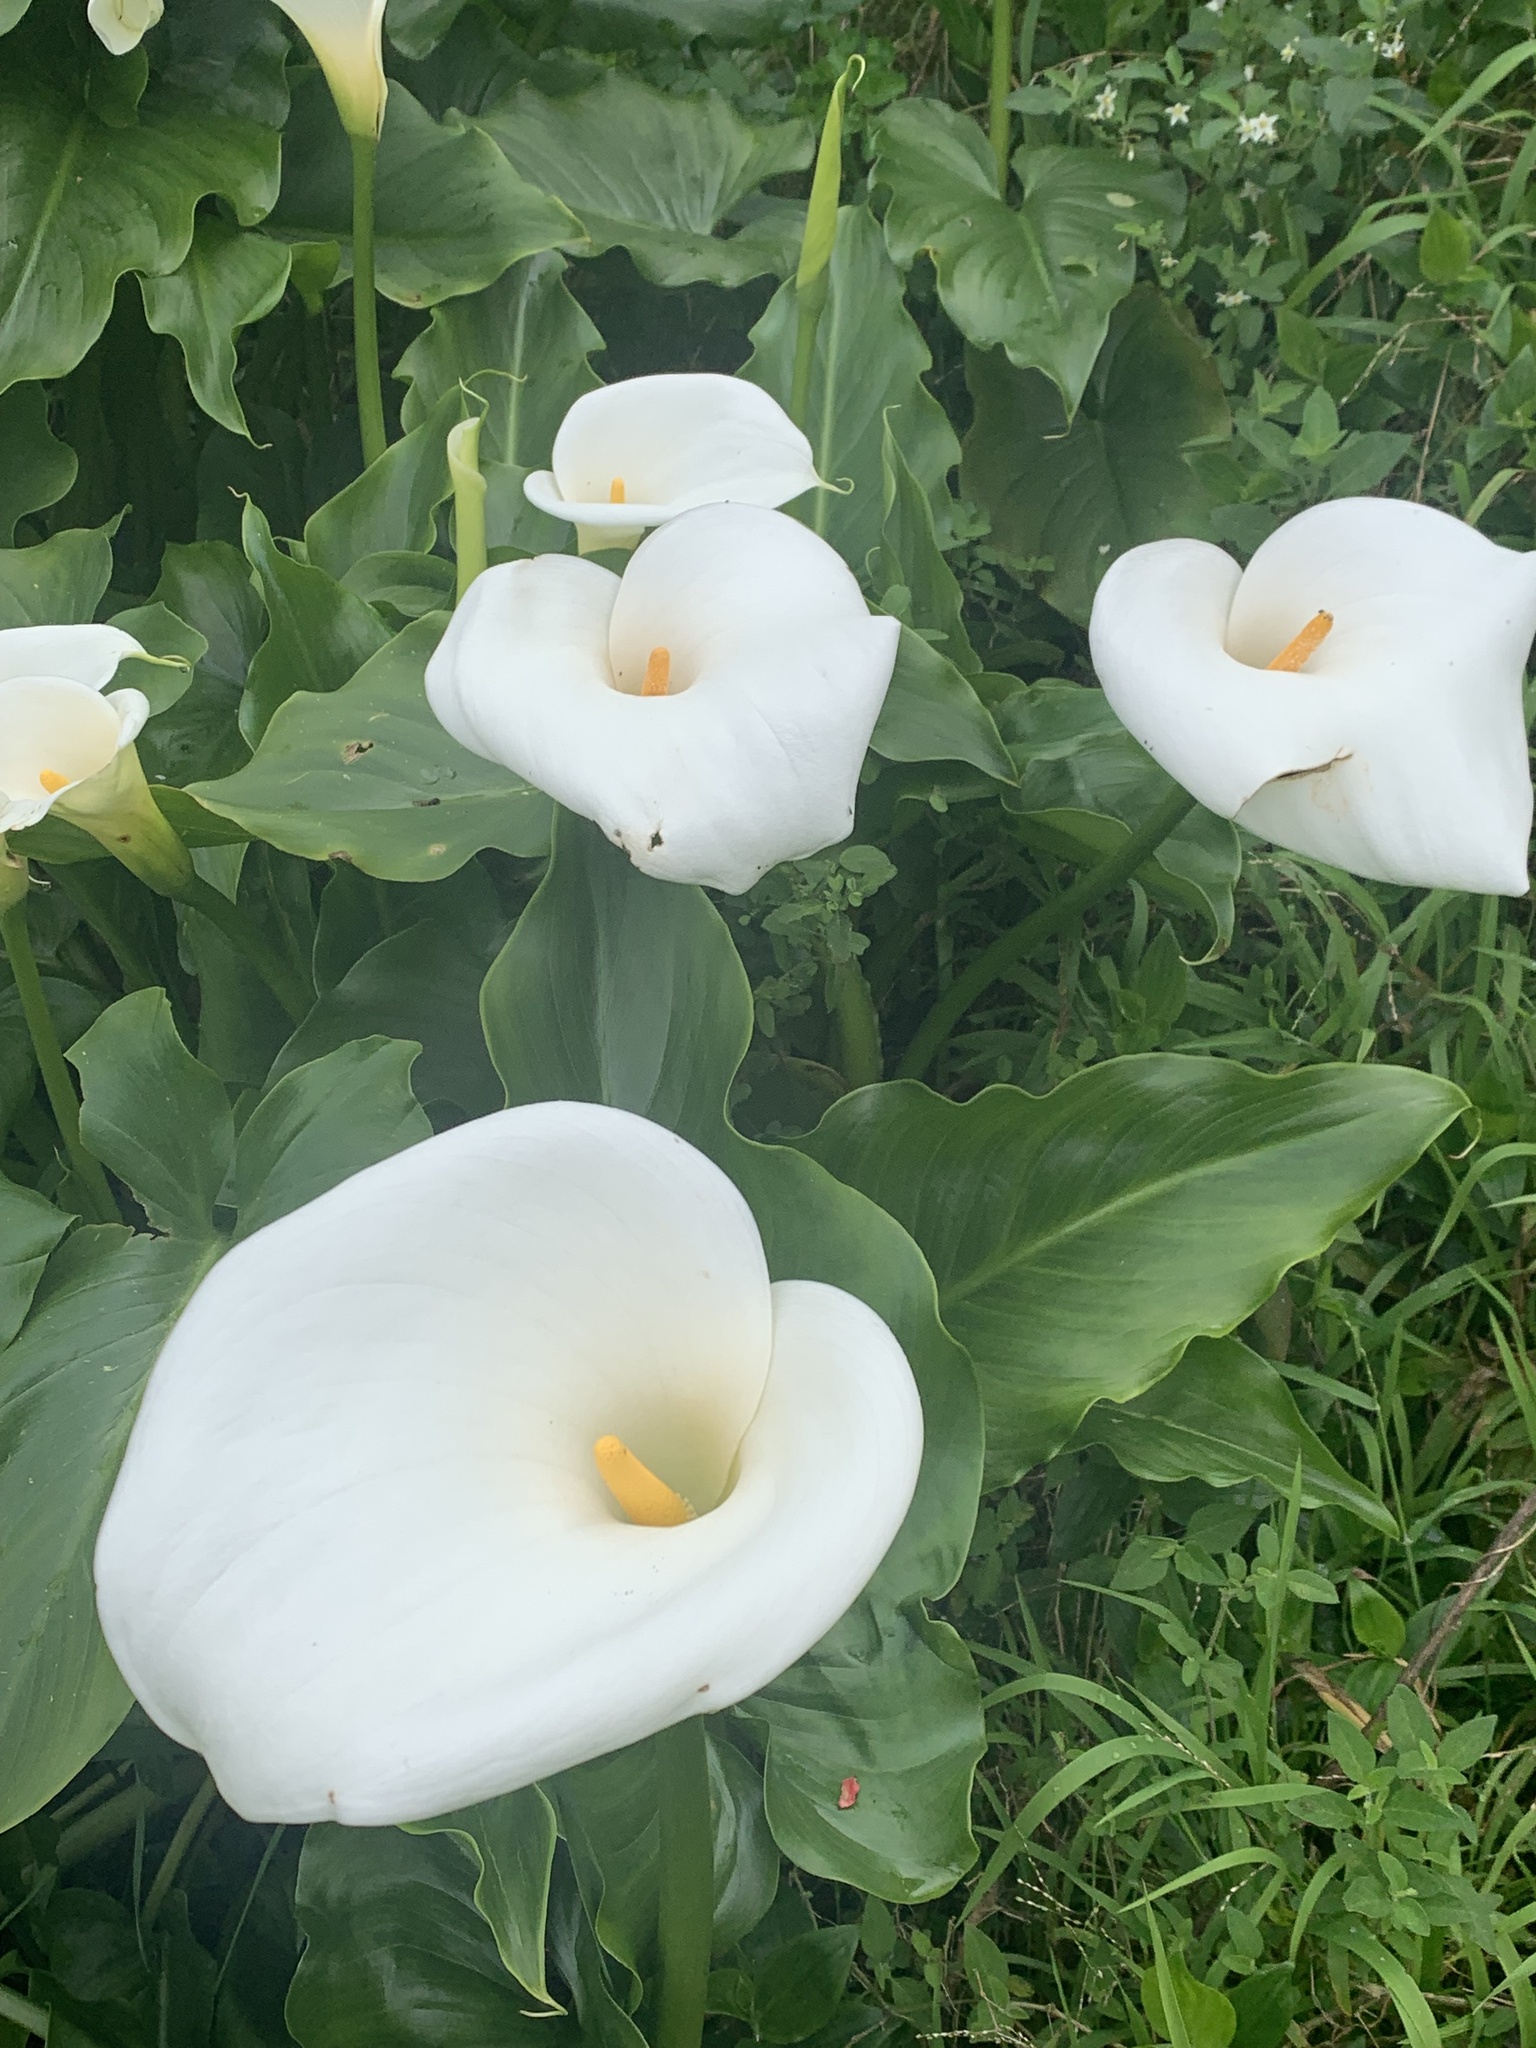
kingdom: Plantae
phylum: Tracheophyta
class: Liliopsida
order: Alismatales
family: Araceae
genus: Zantedeschia
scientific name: Zantedeschia aethiopica
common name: Altar-lily
